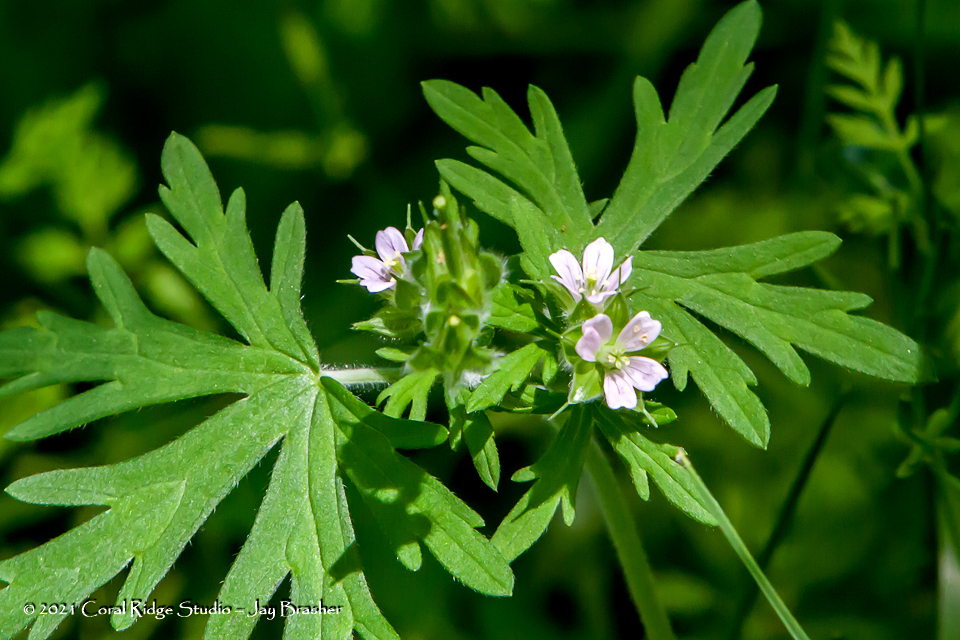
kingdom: Plantae
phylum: Tracheophyta
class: Magnoliopsida
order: Geraniales
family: Geraniaceae
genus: Geranium
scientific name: Geranium carolinianum
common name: Carolina crane's-bill
